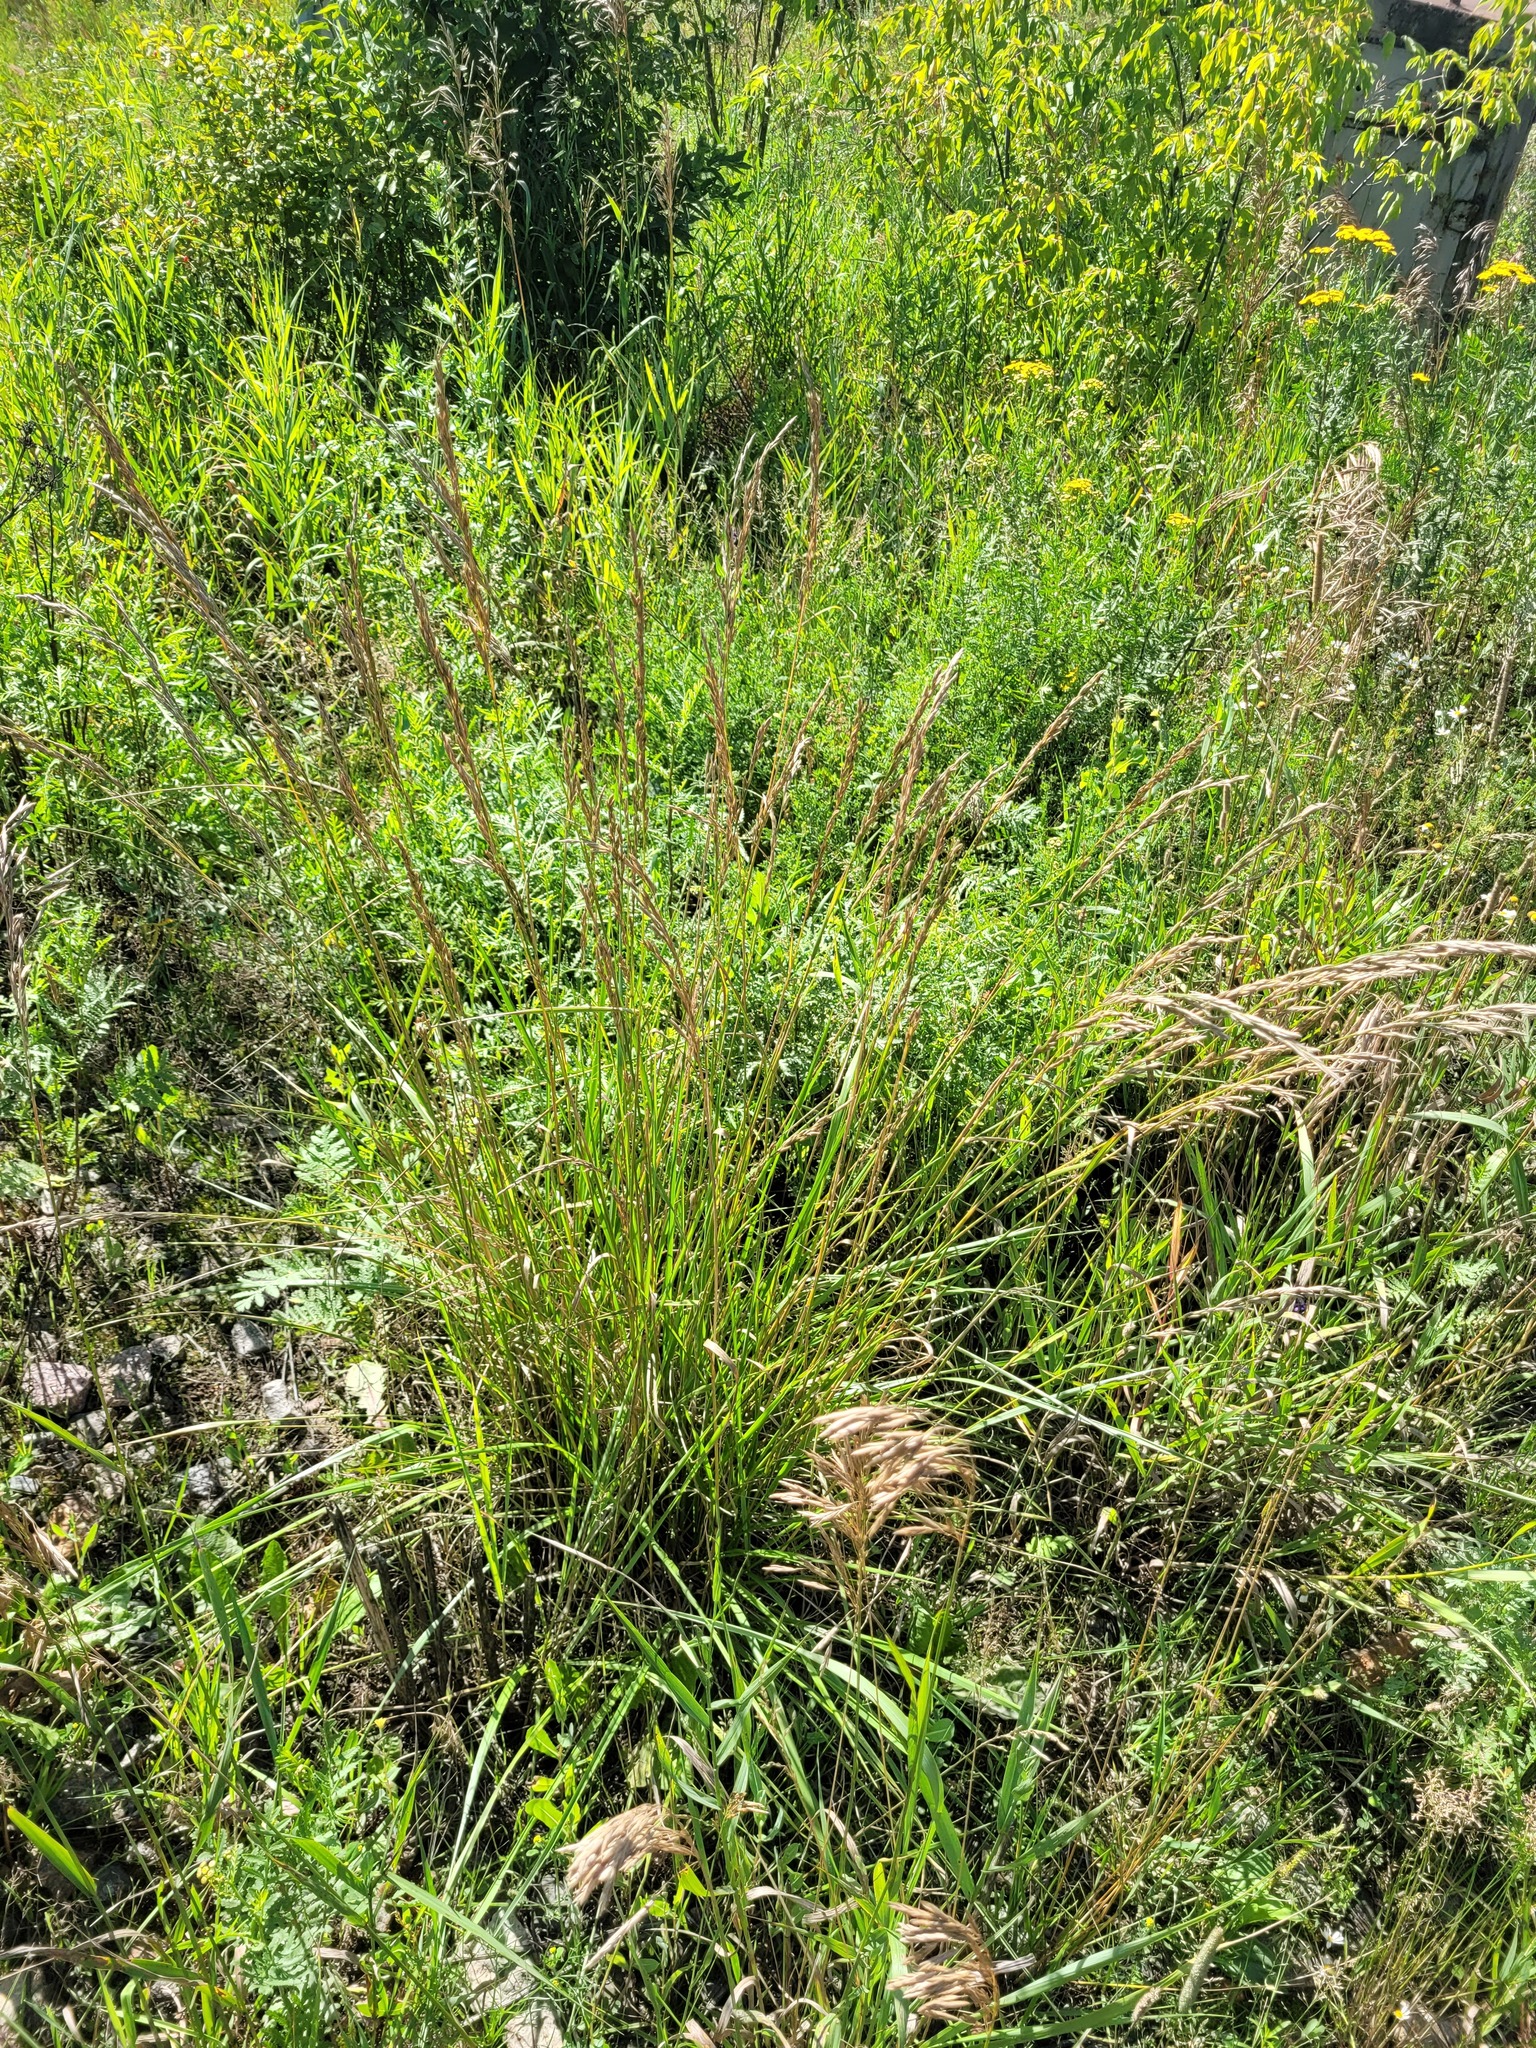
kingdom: Plantae
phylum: Tracheophyta
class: Liliopsida
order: Poales
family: Poaceae
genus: Lolium
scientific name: Lolium arundinaceum
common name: Reed fescue
